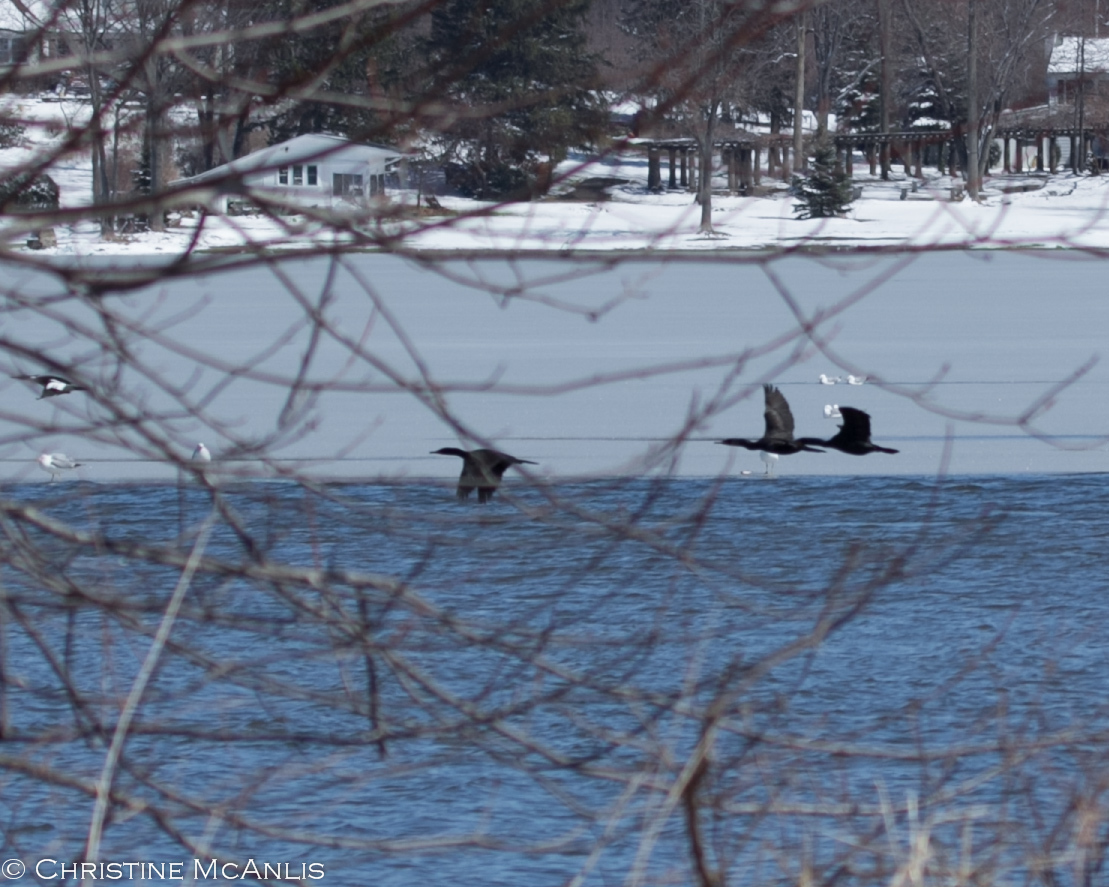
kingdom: Animalia
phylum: Chordata
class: Aves
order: Suliformes
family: Phalacrocoracidae
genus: Phalacrocorax
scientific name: Phalacrocorax auritus
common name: Double-crested cormorant
